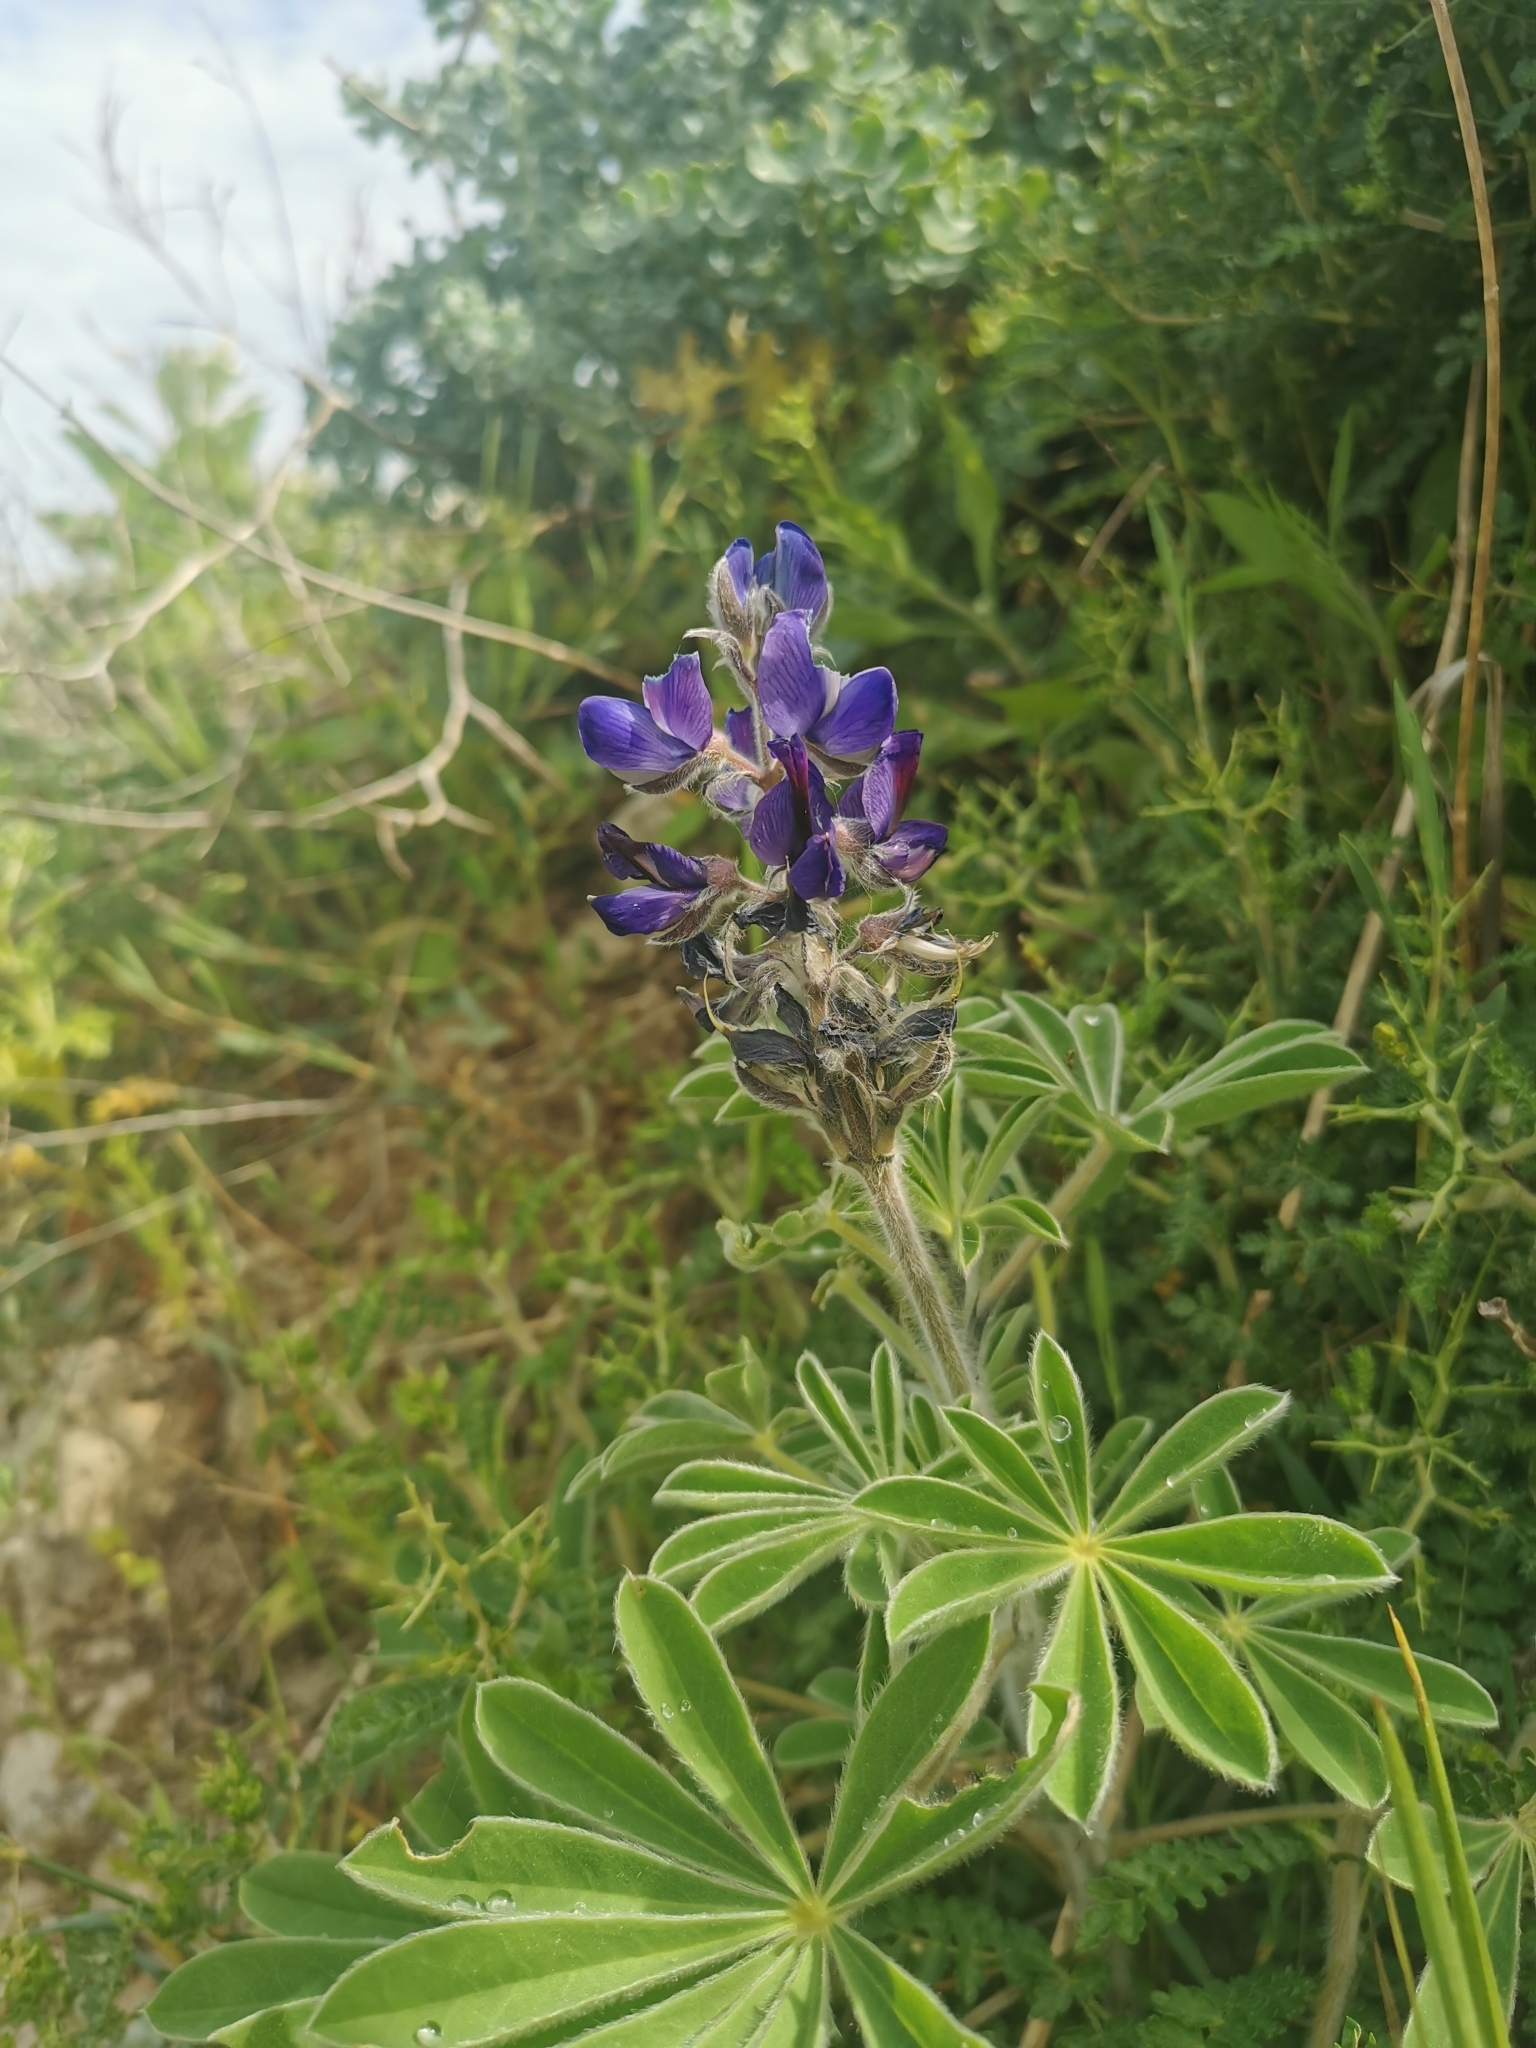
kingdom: Plantae
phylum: Tracheophyta
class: Magnoliopsida
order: Fabales
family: Fabaceae
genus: Lupinus
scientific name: Lupinus pilosus
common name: Blue lupine
